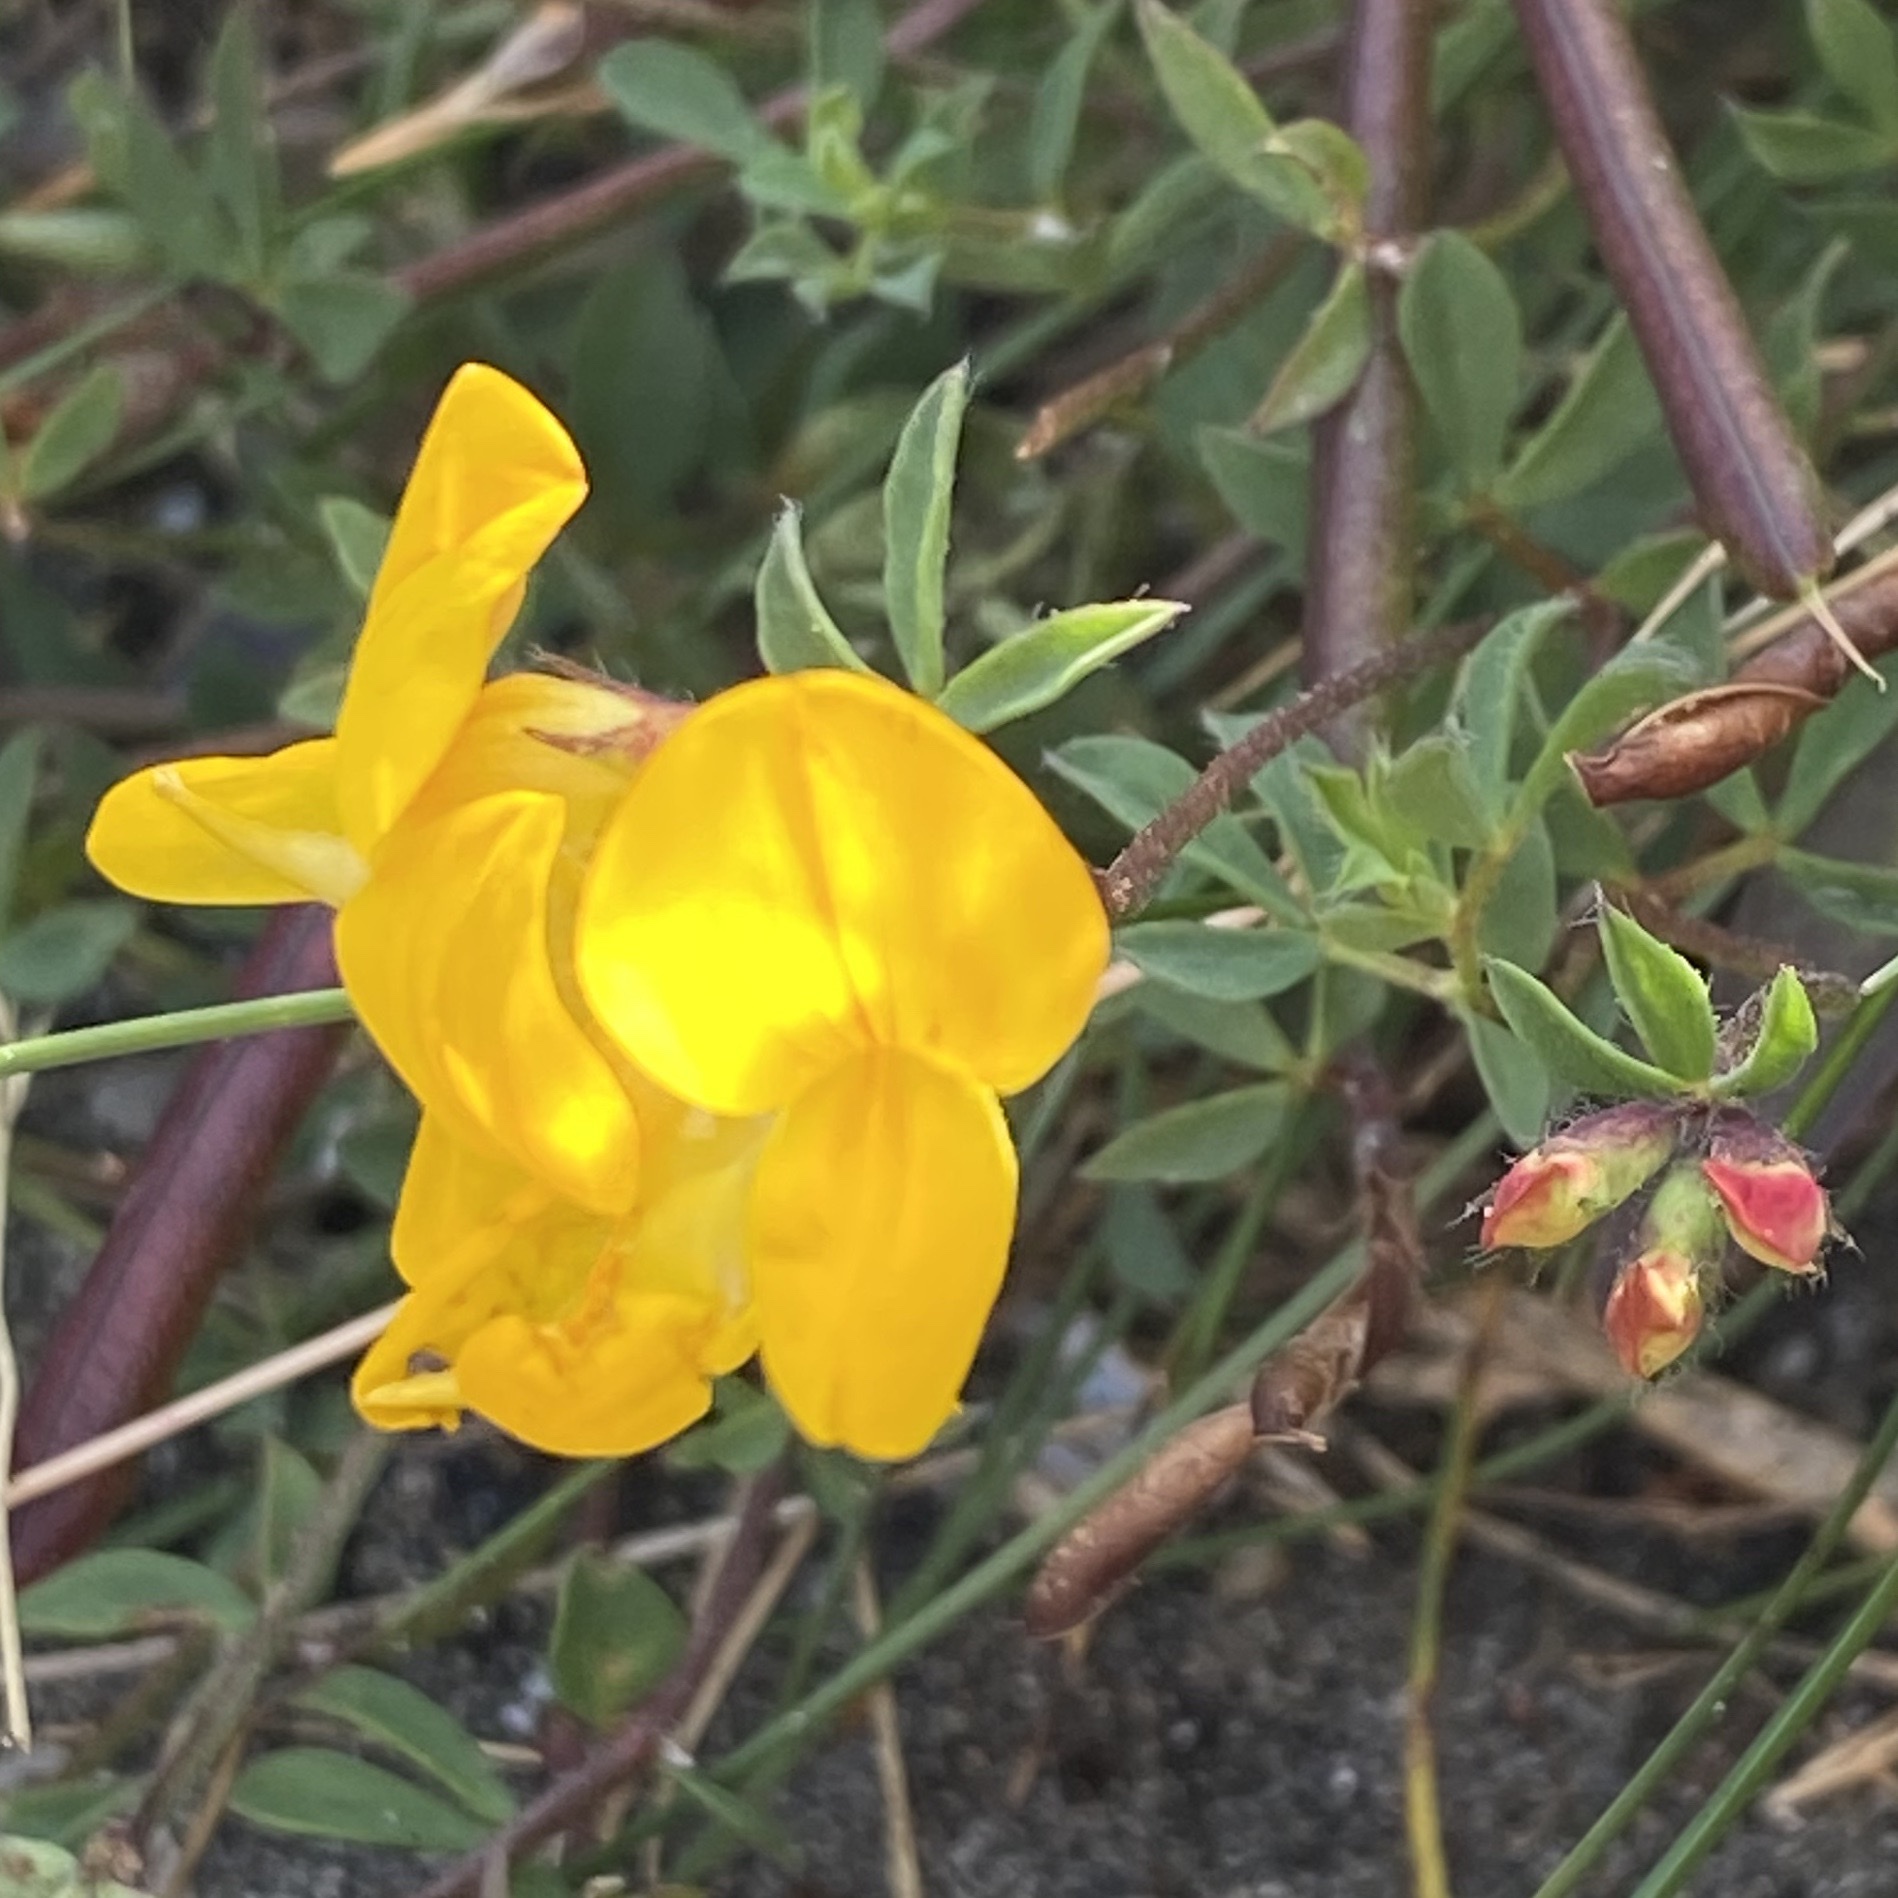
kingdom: Plantae
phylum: Tracheophyta
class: Magnoliopsida
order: Fabales
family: Fabaceae
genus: Lotus
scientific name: Lotus corniculatus
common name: Common bird's-foot-trefoil
